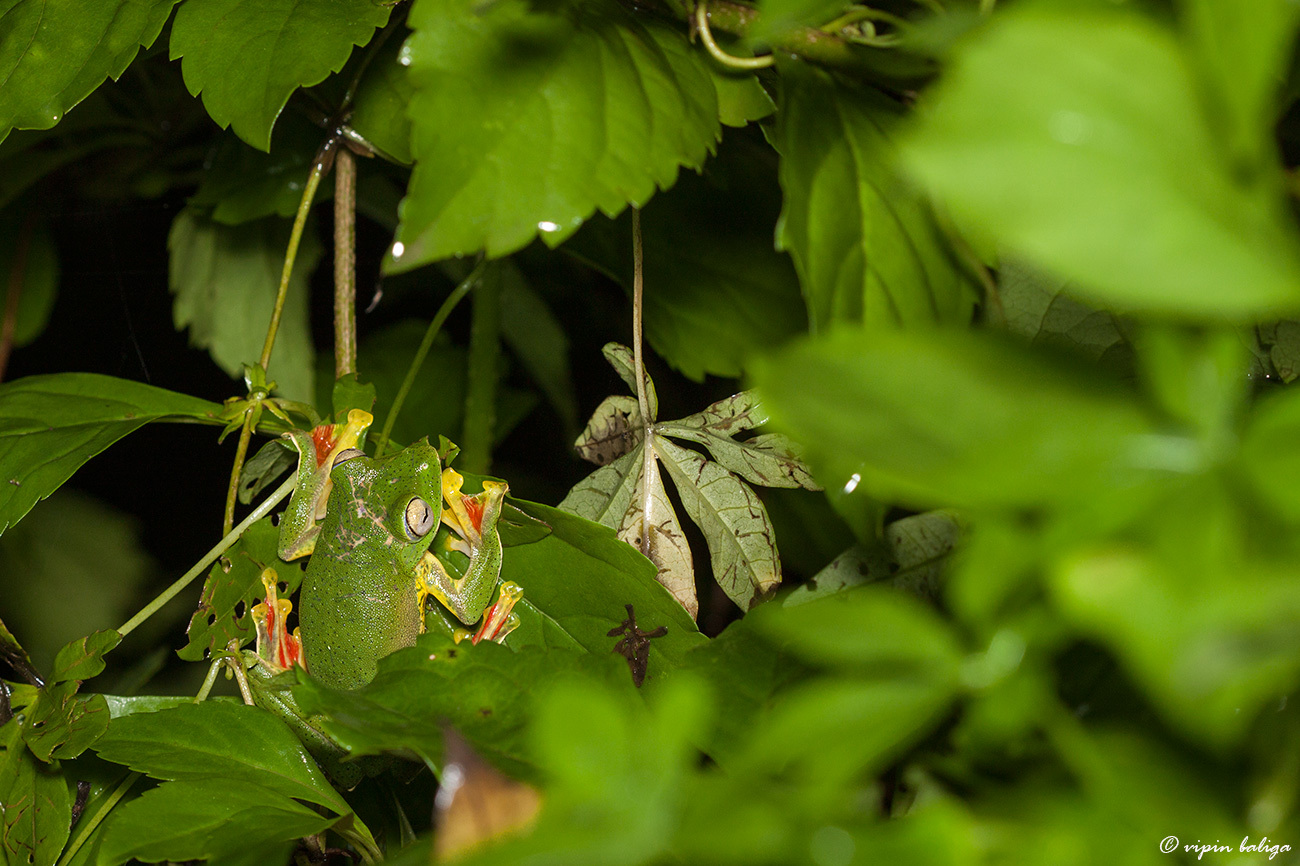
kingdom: Animalia
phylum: Chordata
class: Amphibia
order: Anura
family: Rhacophoridae
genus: Rhacophorus
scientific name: Rhacophorus malabaricus
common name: Malabar gliding frog
